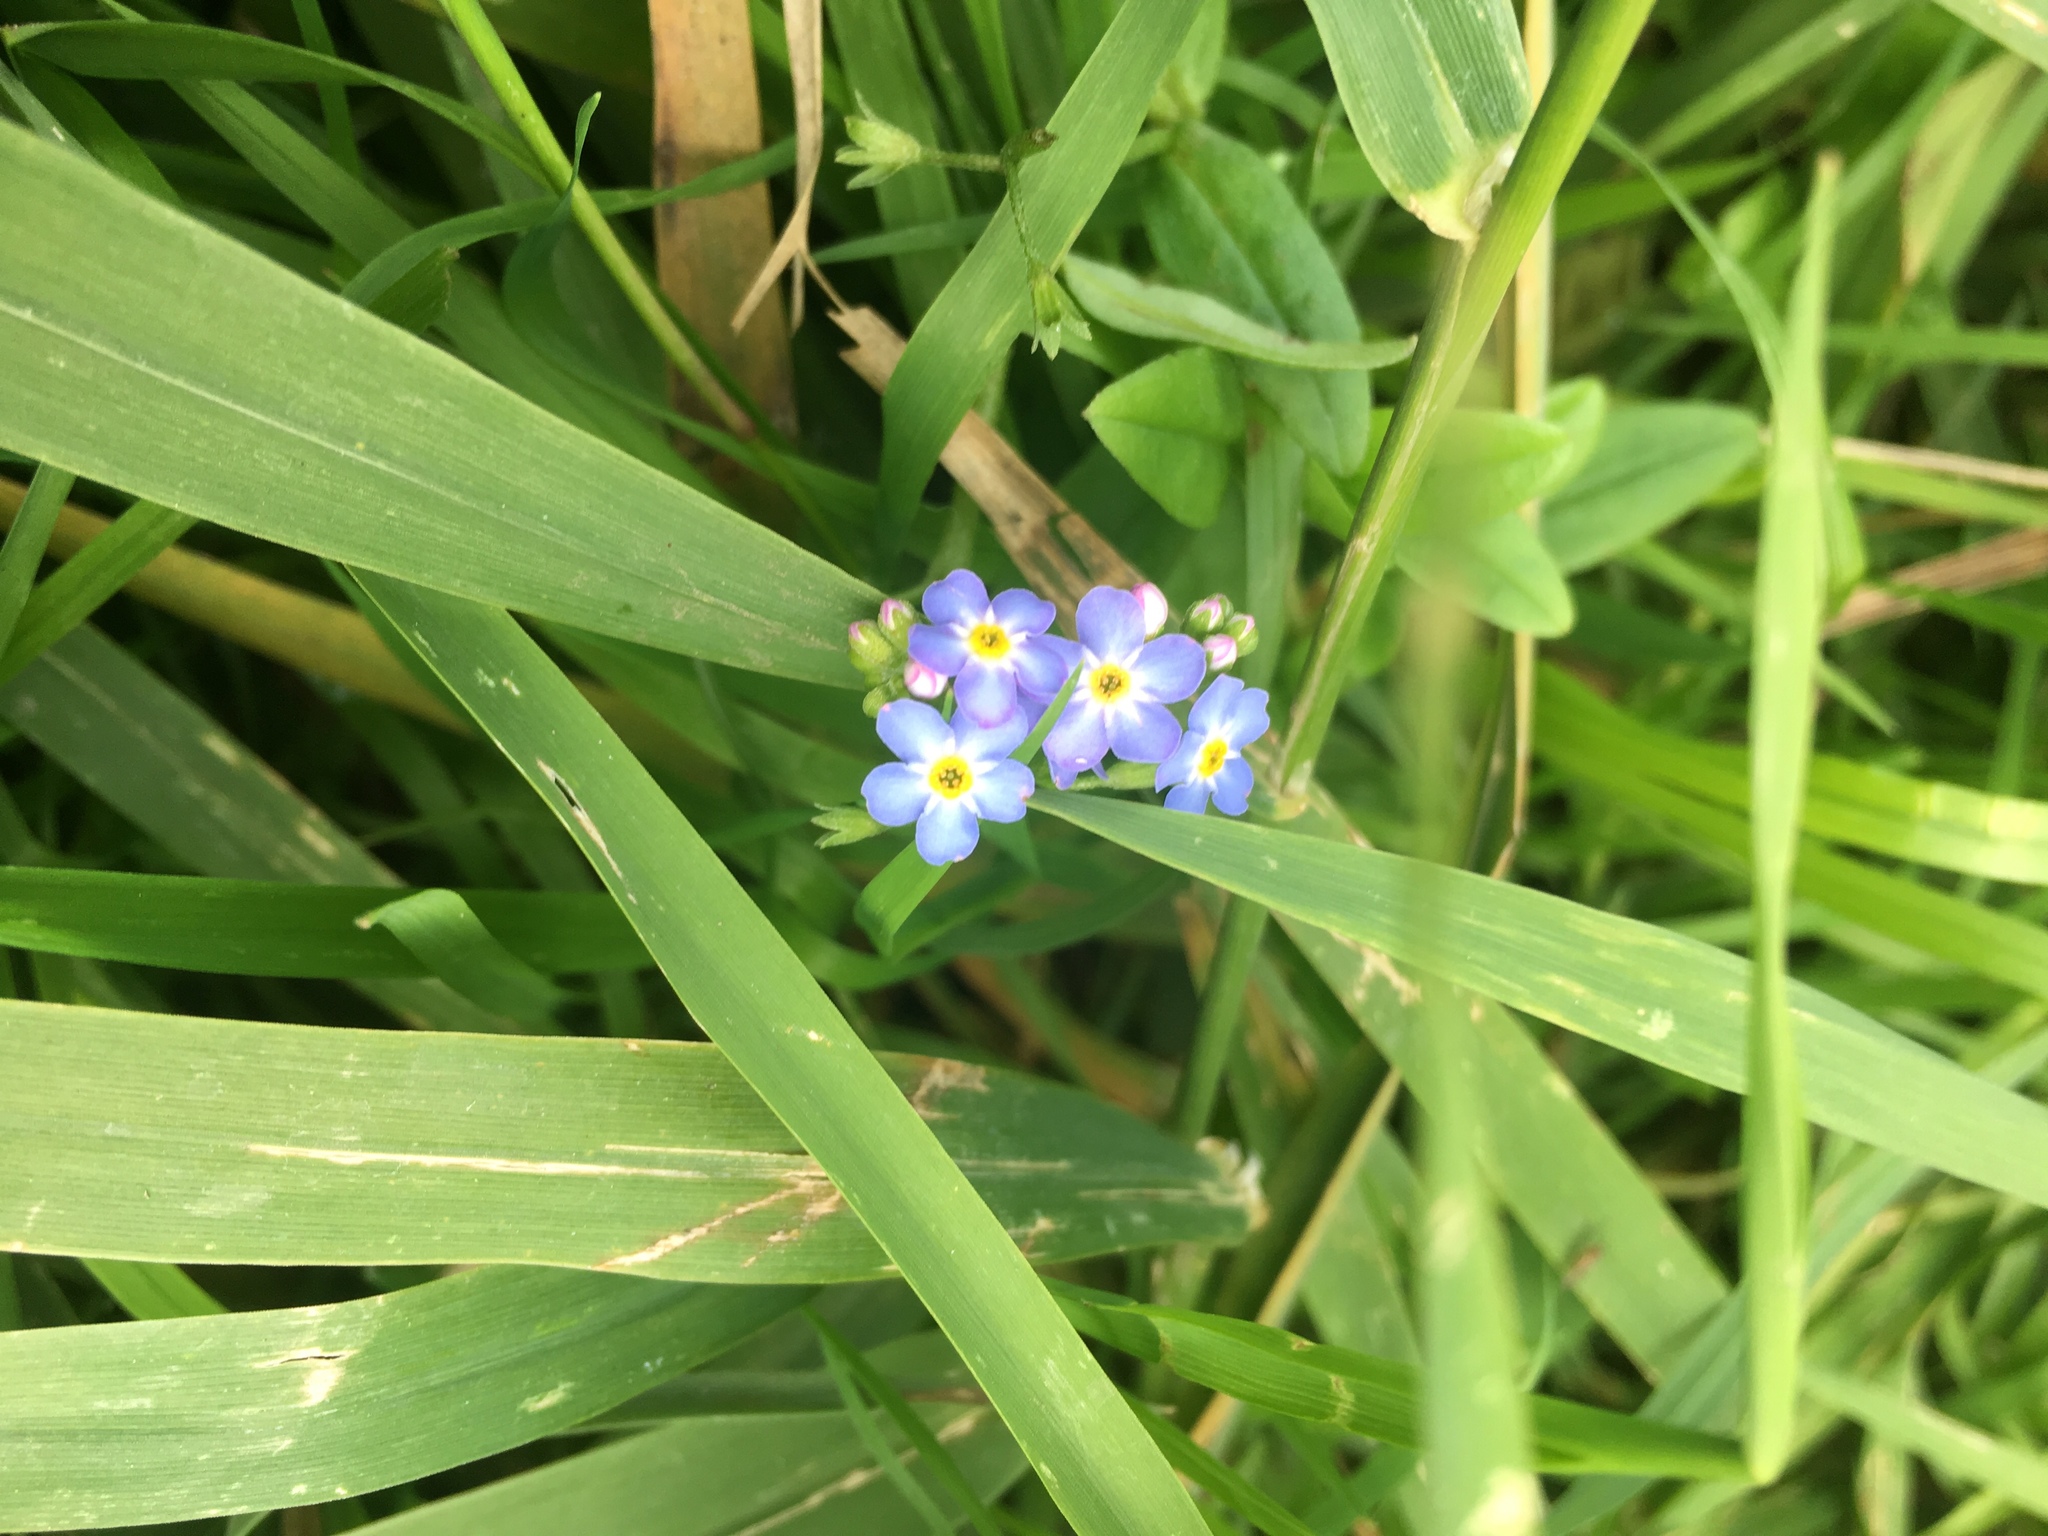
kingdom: Plantae
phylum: Tracheophyta
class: Magnoliopsida
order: Boraginales
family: Boraginaceae
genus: Myosotis
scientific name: Myosotis scorpioides
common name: Water forget-me-not
